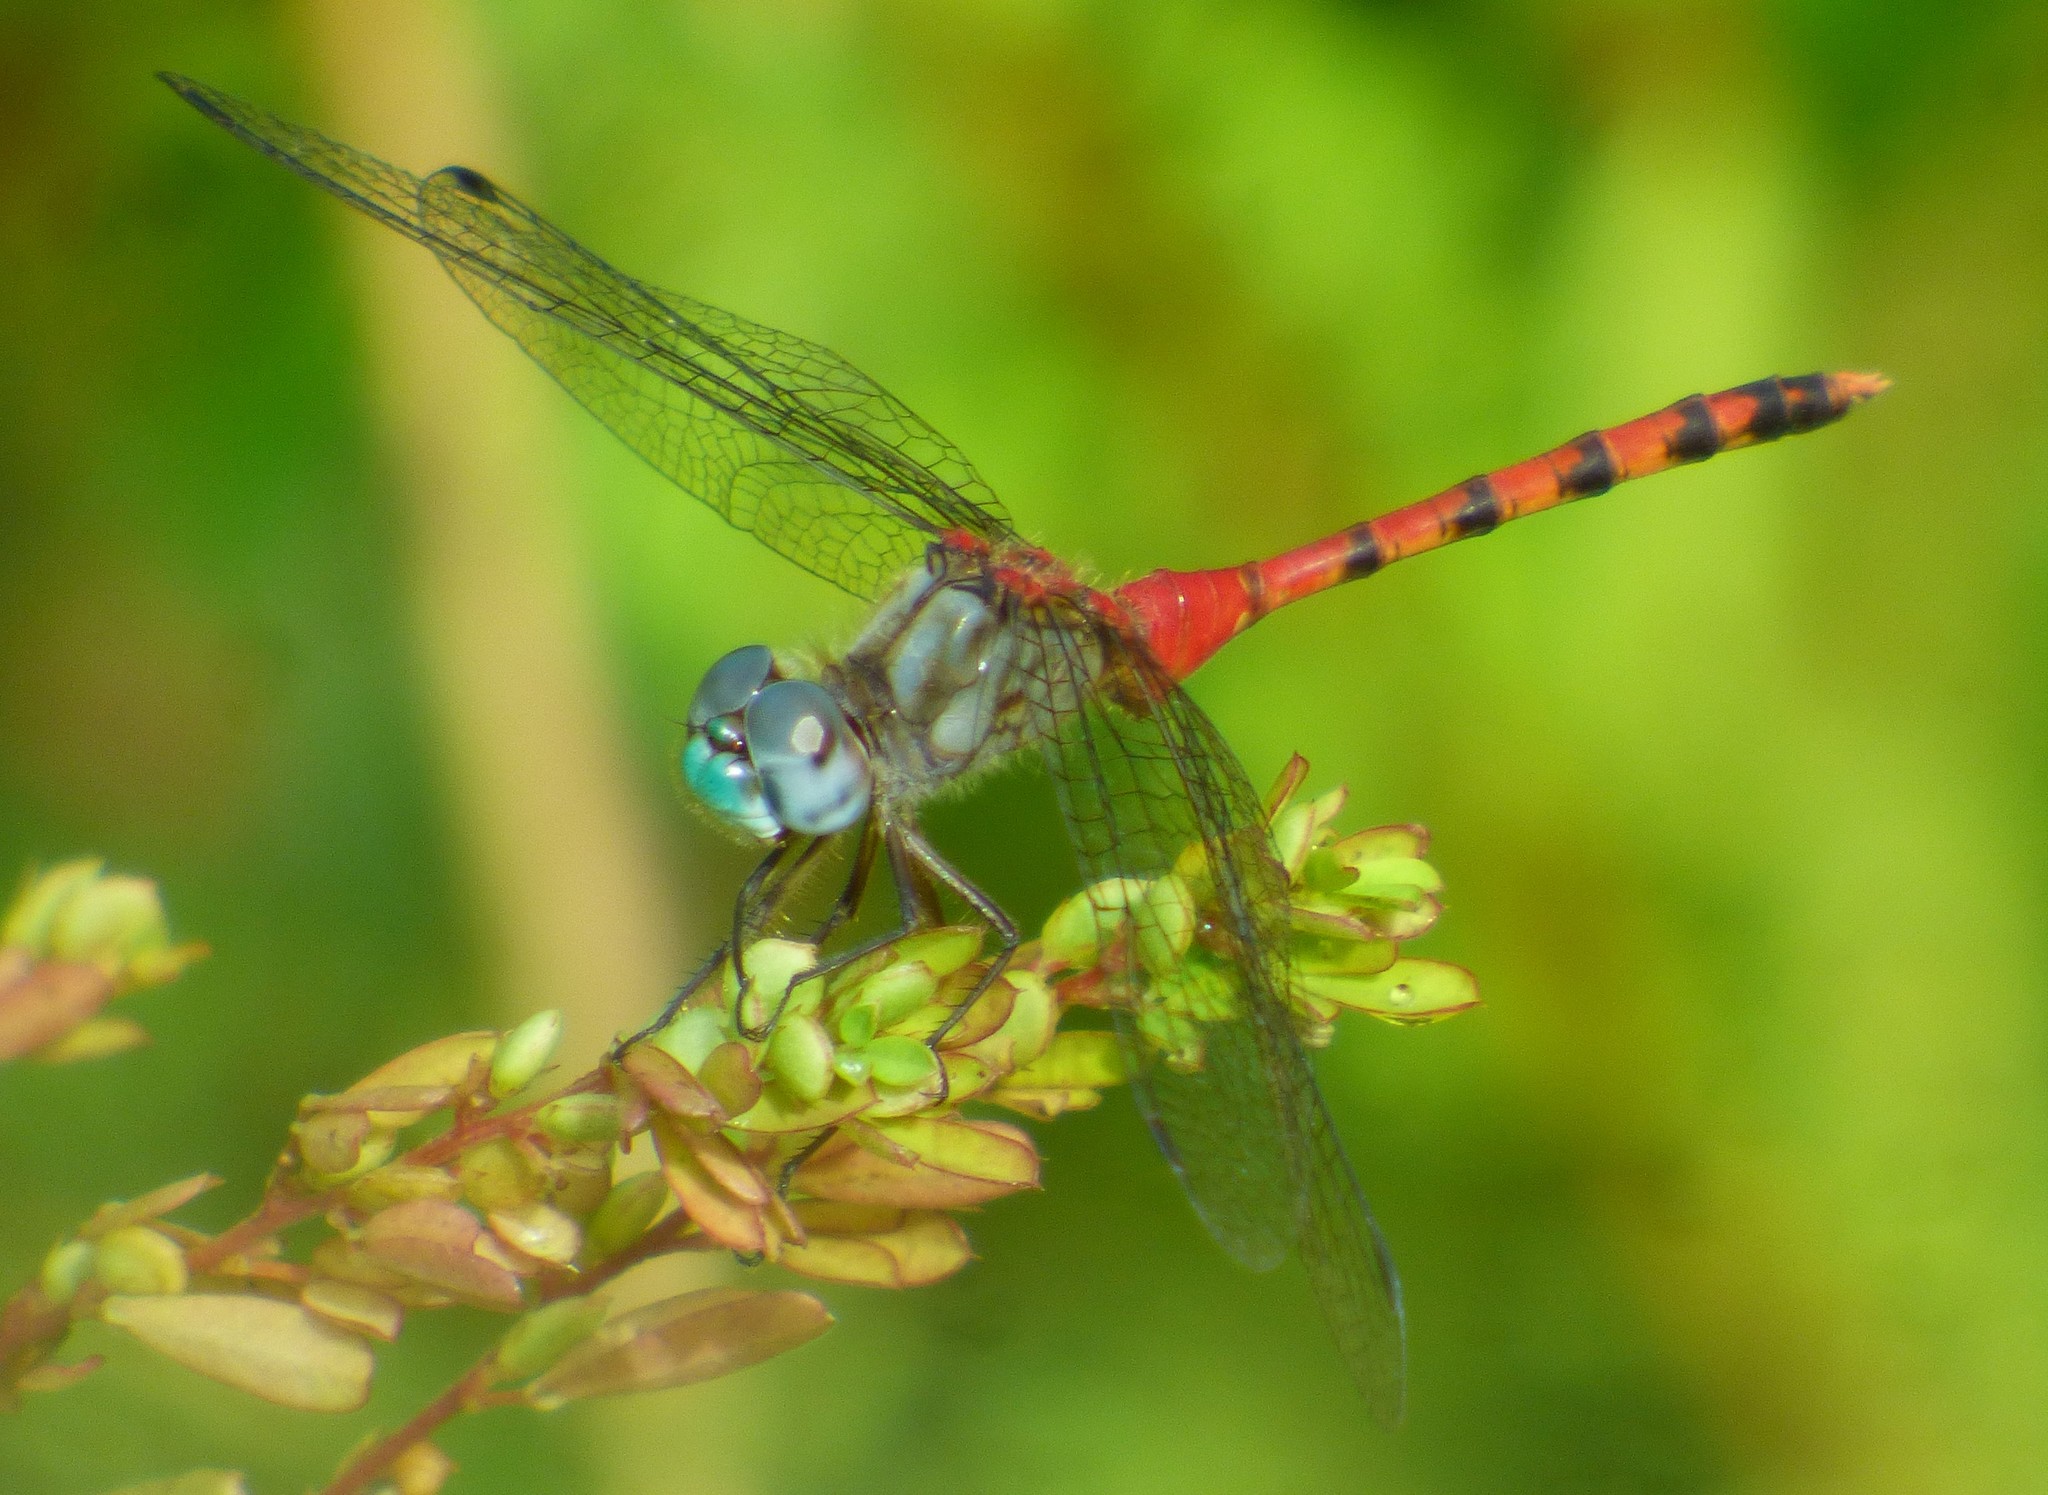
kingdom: Animalia
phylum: Arthropoda
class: Insecta
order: Odonata
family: Libellulidae
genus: Sympetrum
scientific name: Sympetrum ambiguum
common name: Blue-faced meadowhawk
